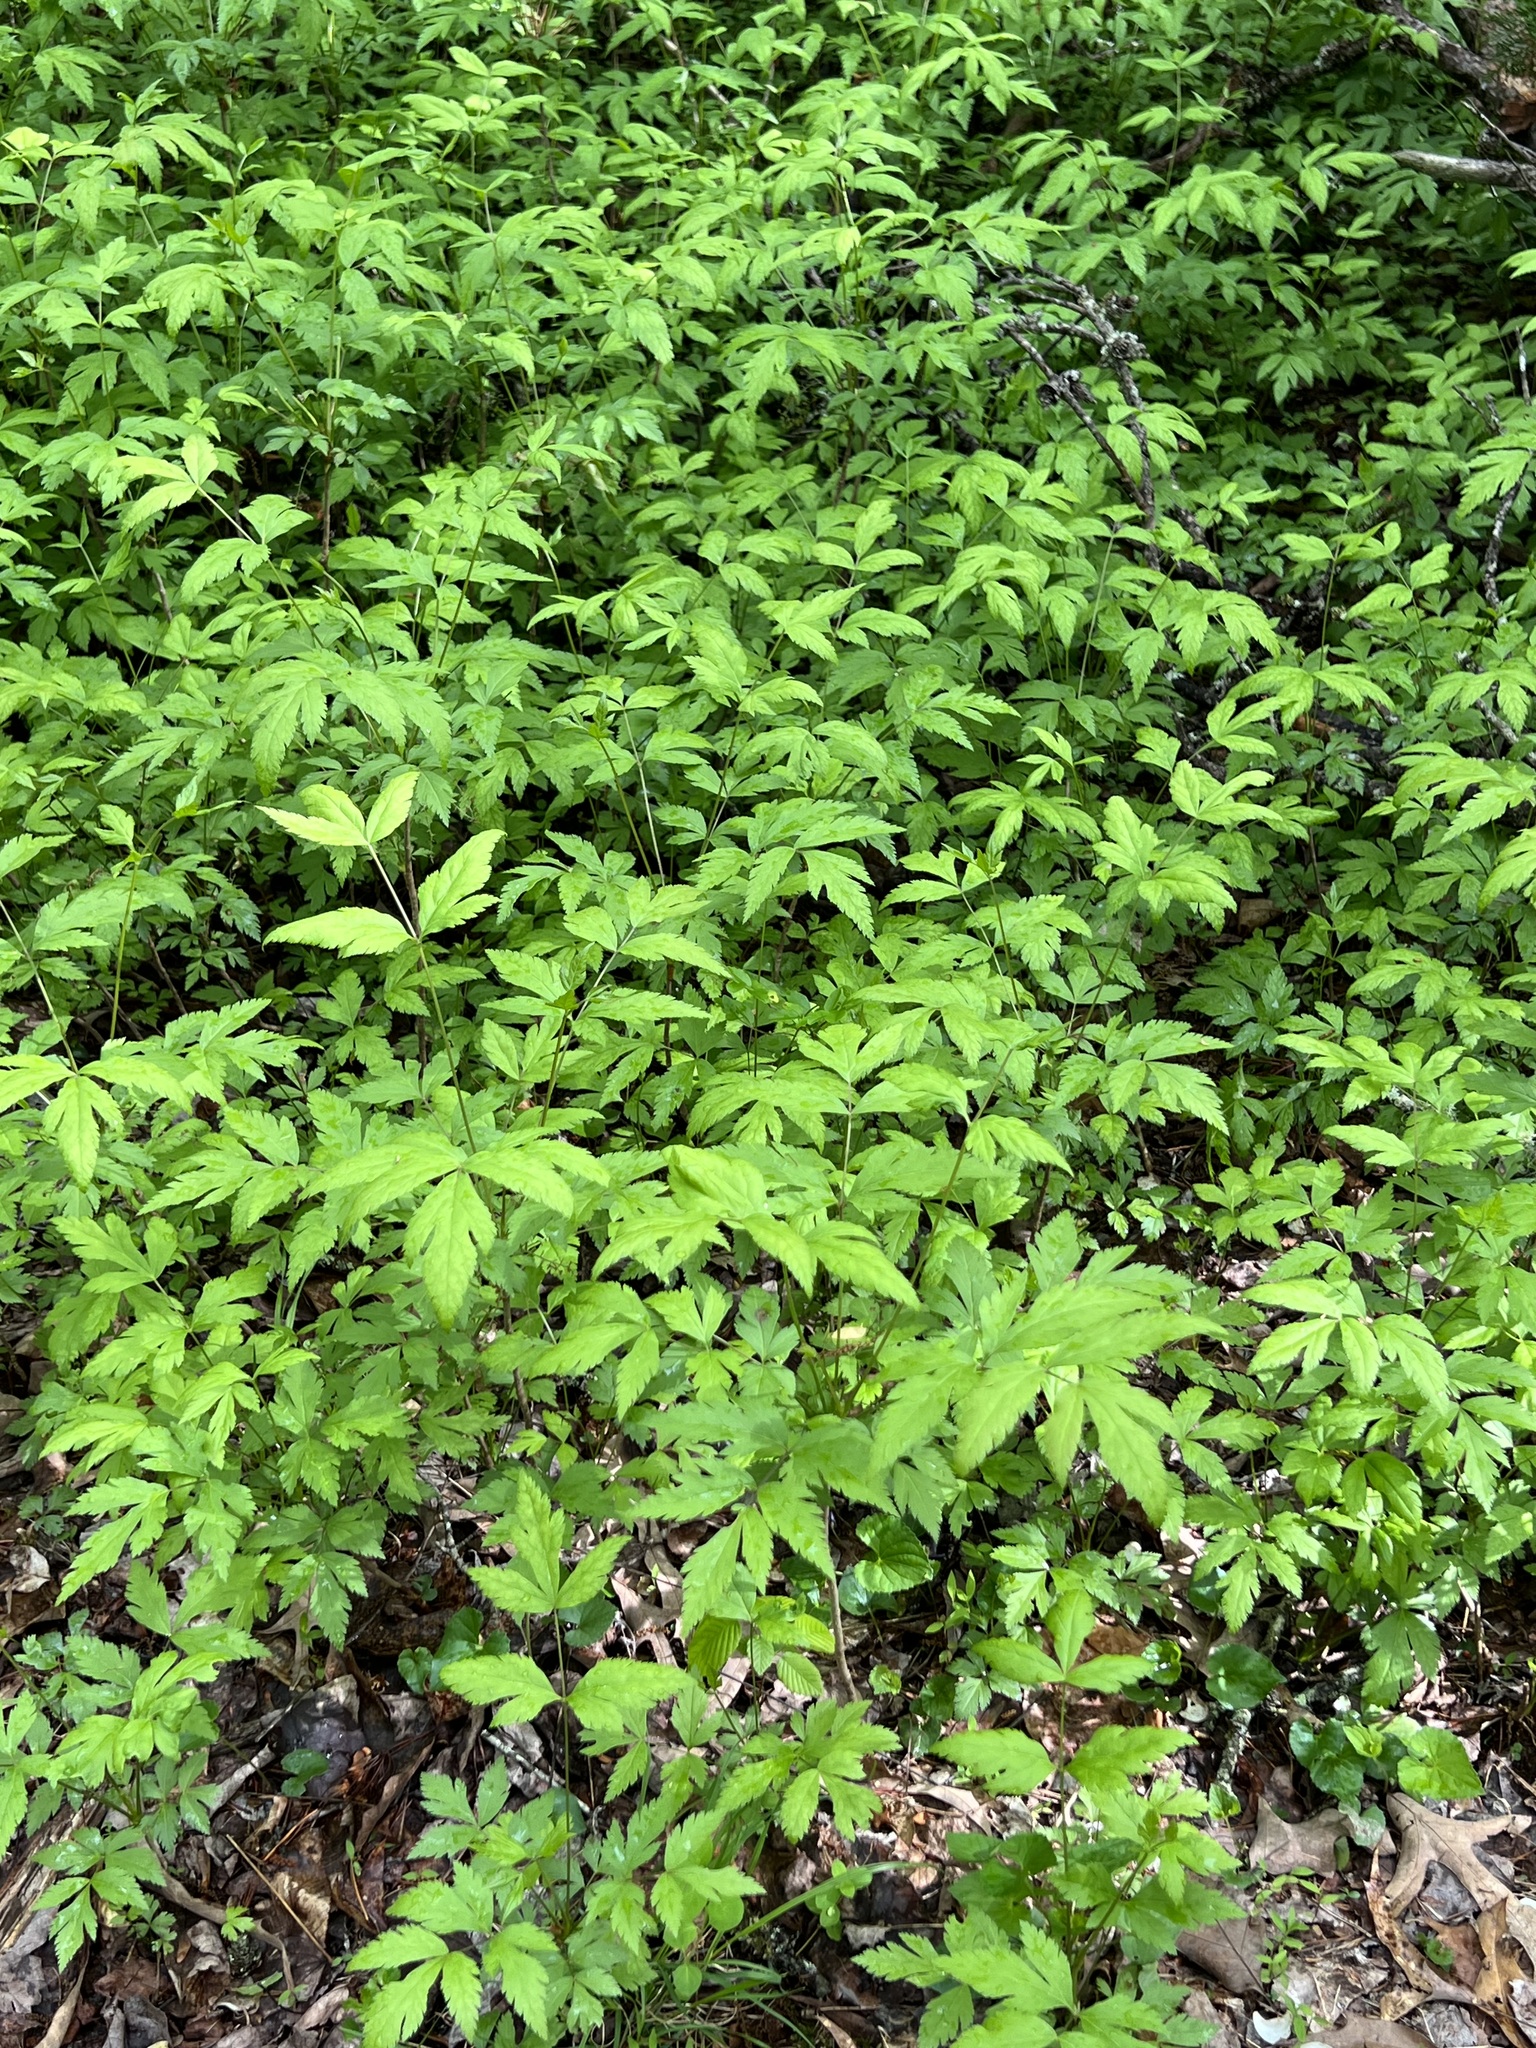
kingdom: Plantae
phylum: Tracheophyta
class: Magnoliopsida
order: Ranunculales
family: Ranunculaceae
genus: Xanthorhiza
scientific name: Xanthorhiza simplicissima
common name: Yellowroot
